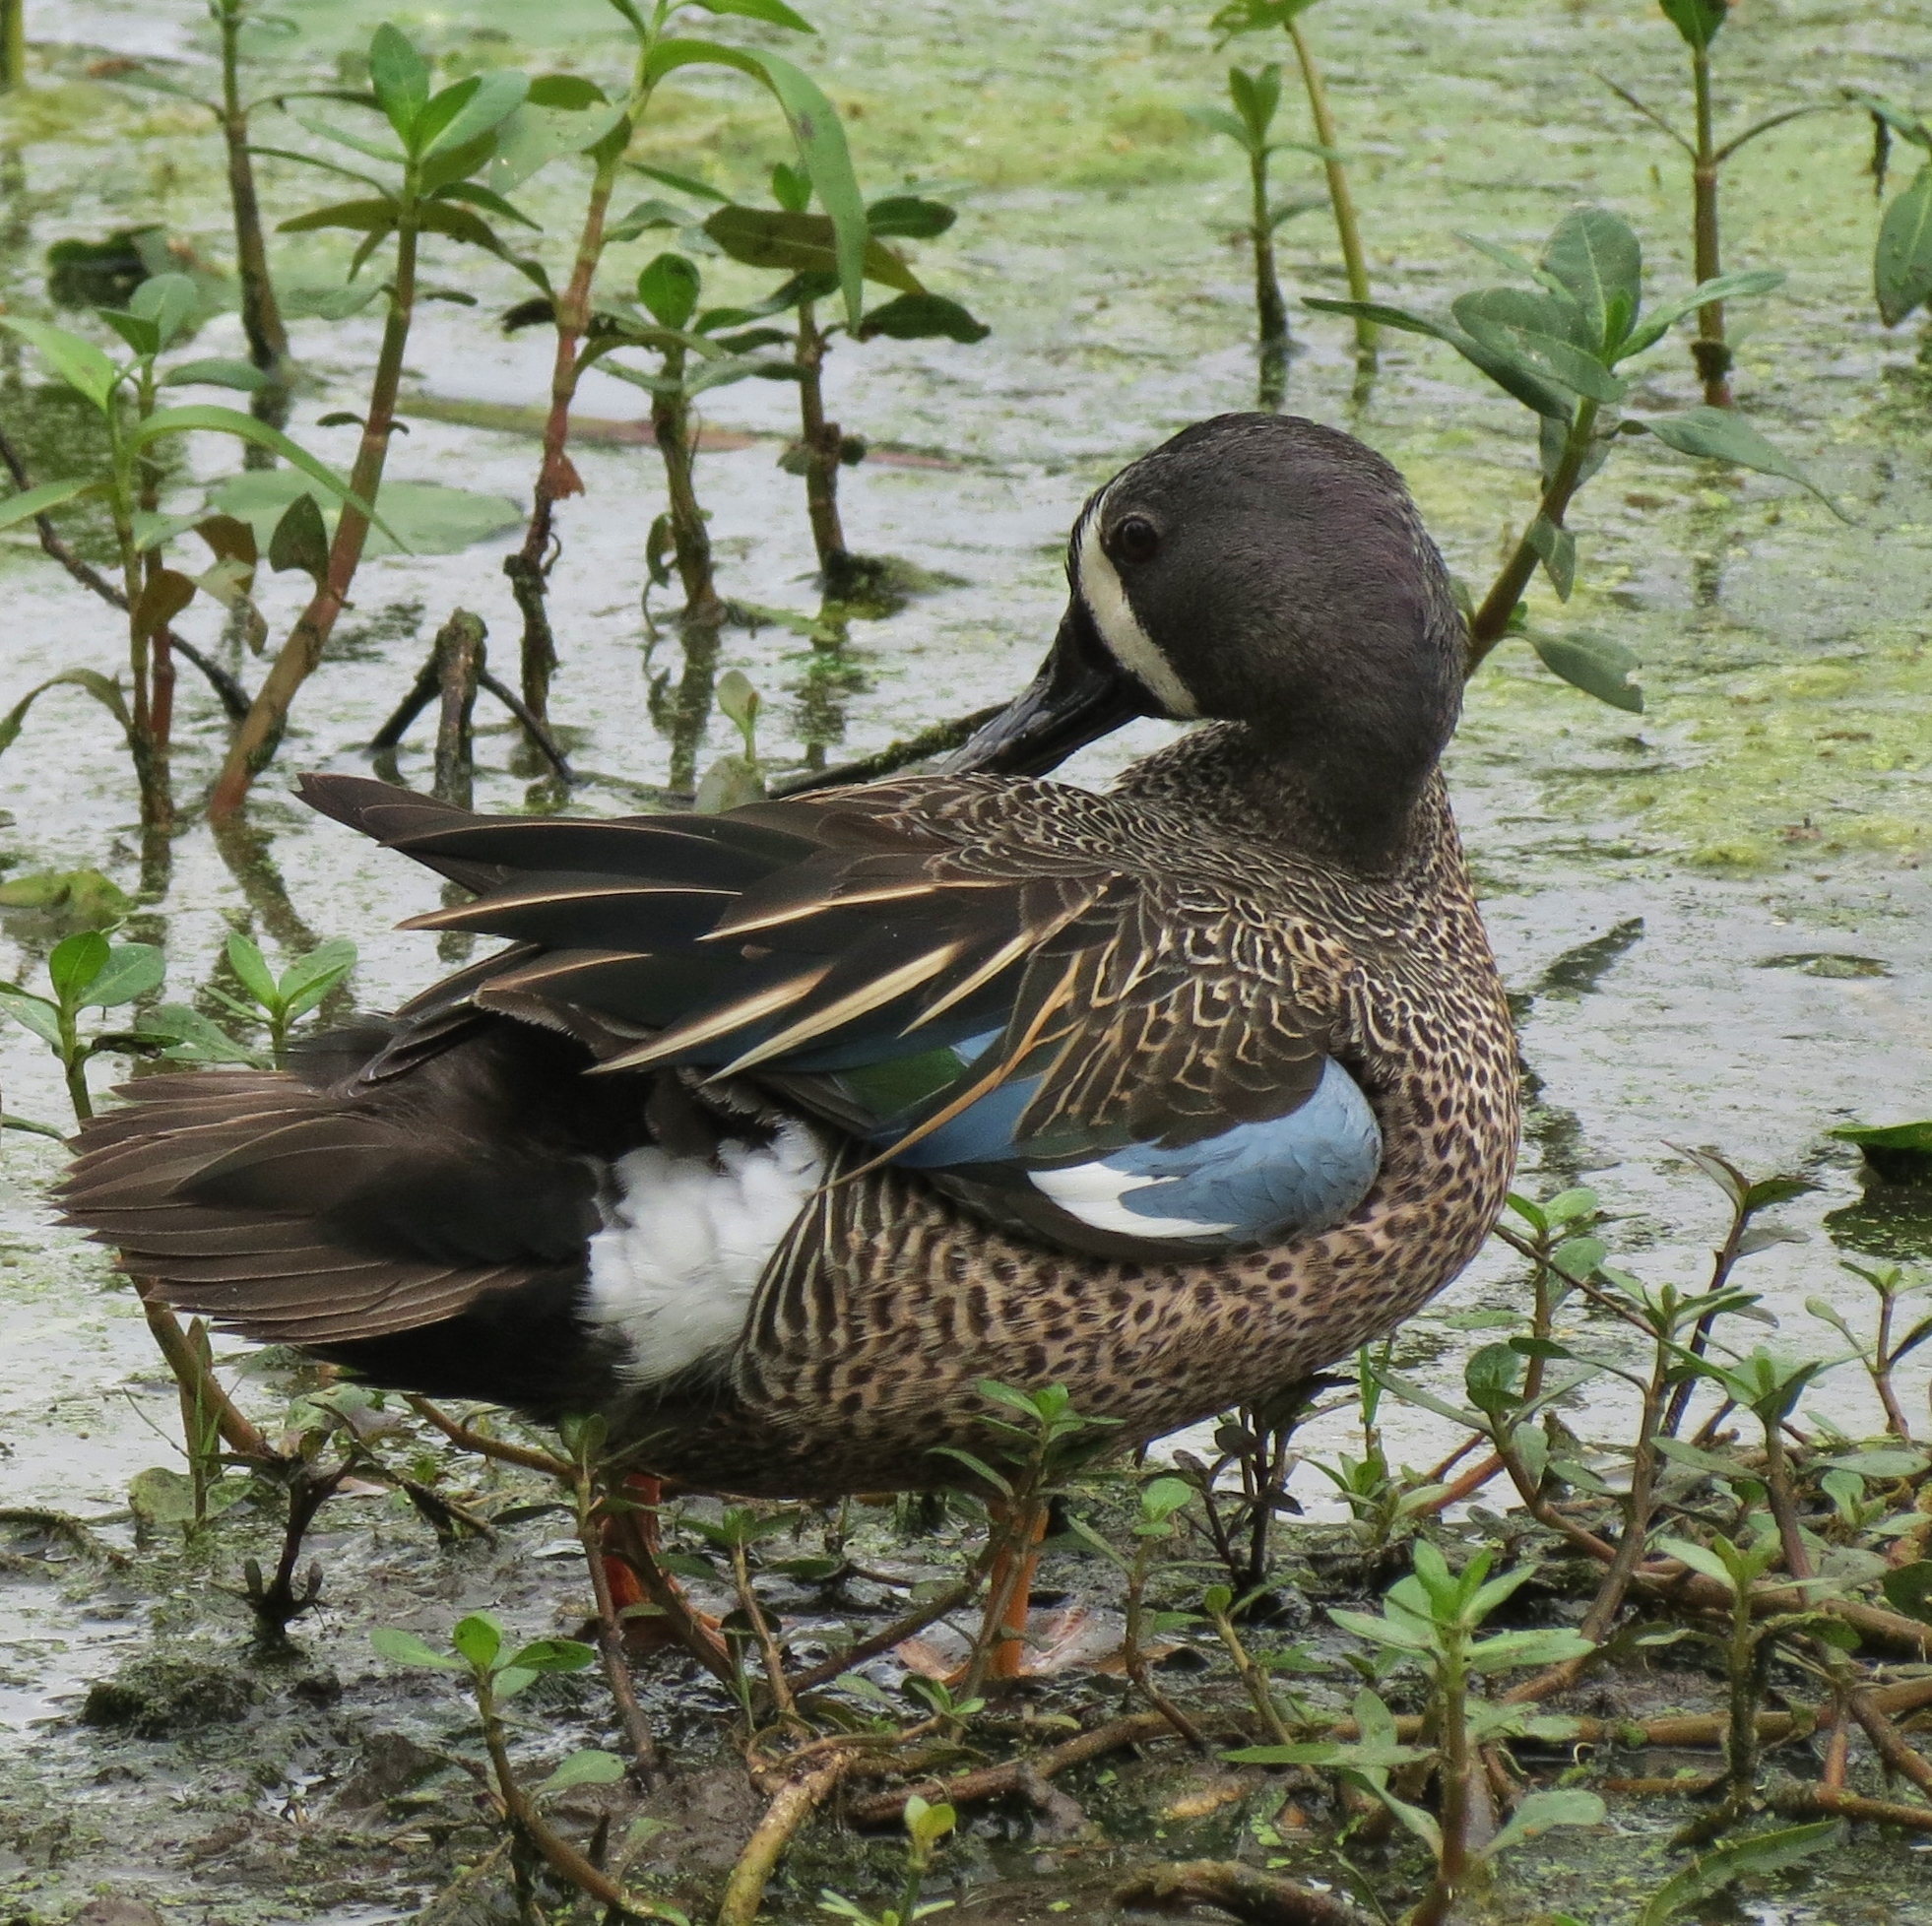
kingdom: Animalia
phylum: Chordata
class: Aves
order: Anseriformes
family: Anatidae
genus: Spatula
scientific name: Spatula discors
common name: Blue-winged teal
